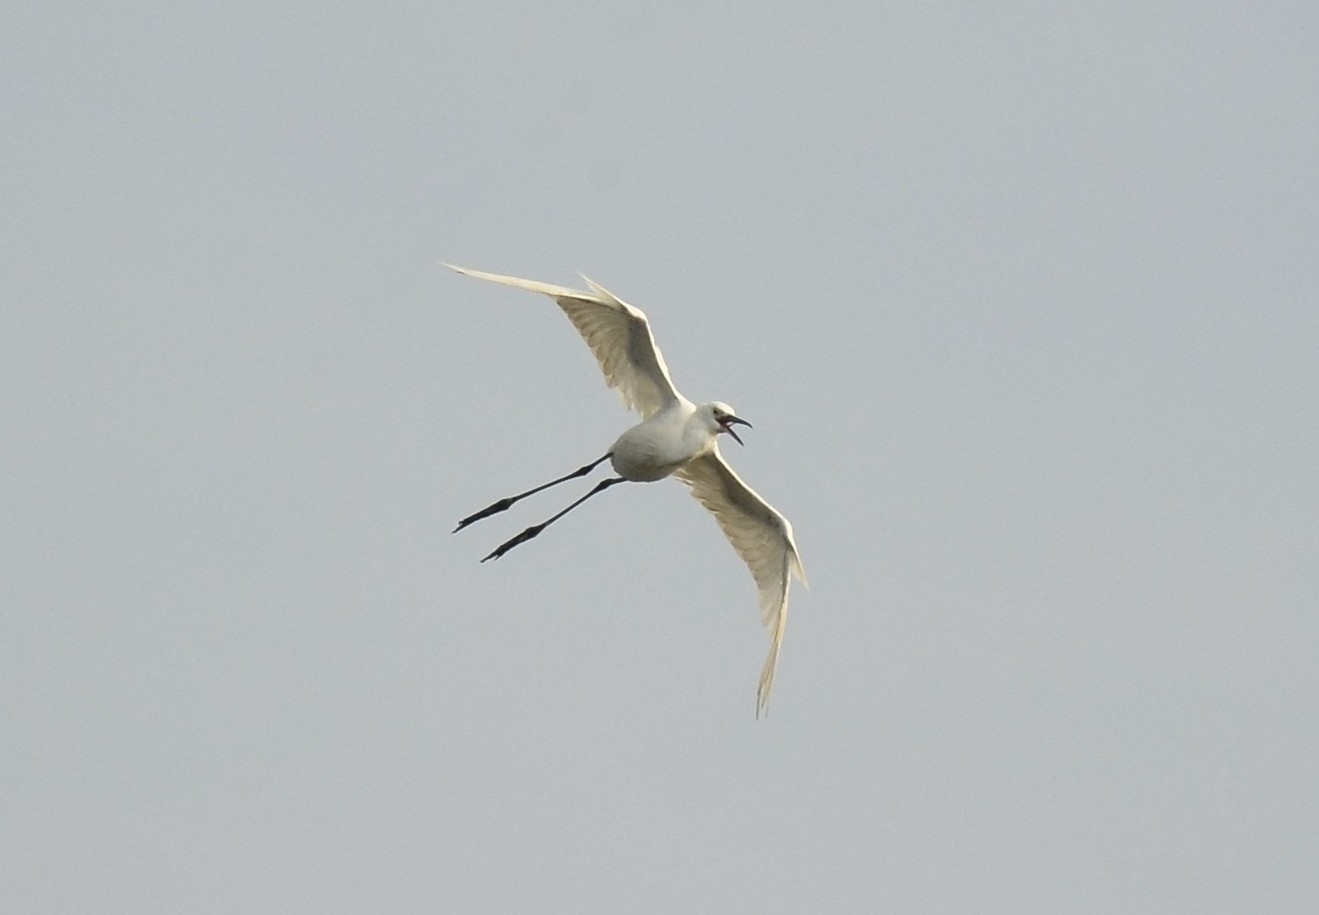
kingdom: Animalia
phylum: Chordata
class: Aves
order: Pelecaniformes
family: Ardeidae
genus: Egretta
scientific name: Egretta garzetta
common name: Little egret
